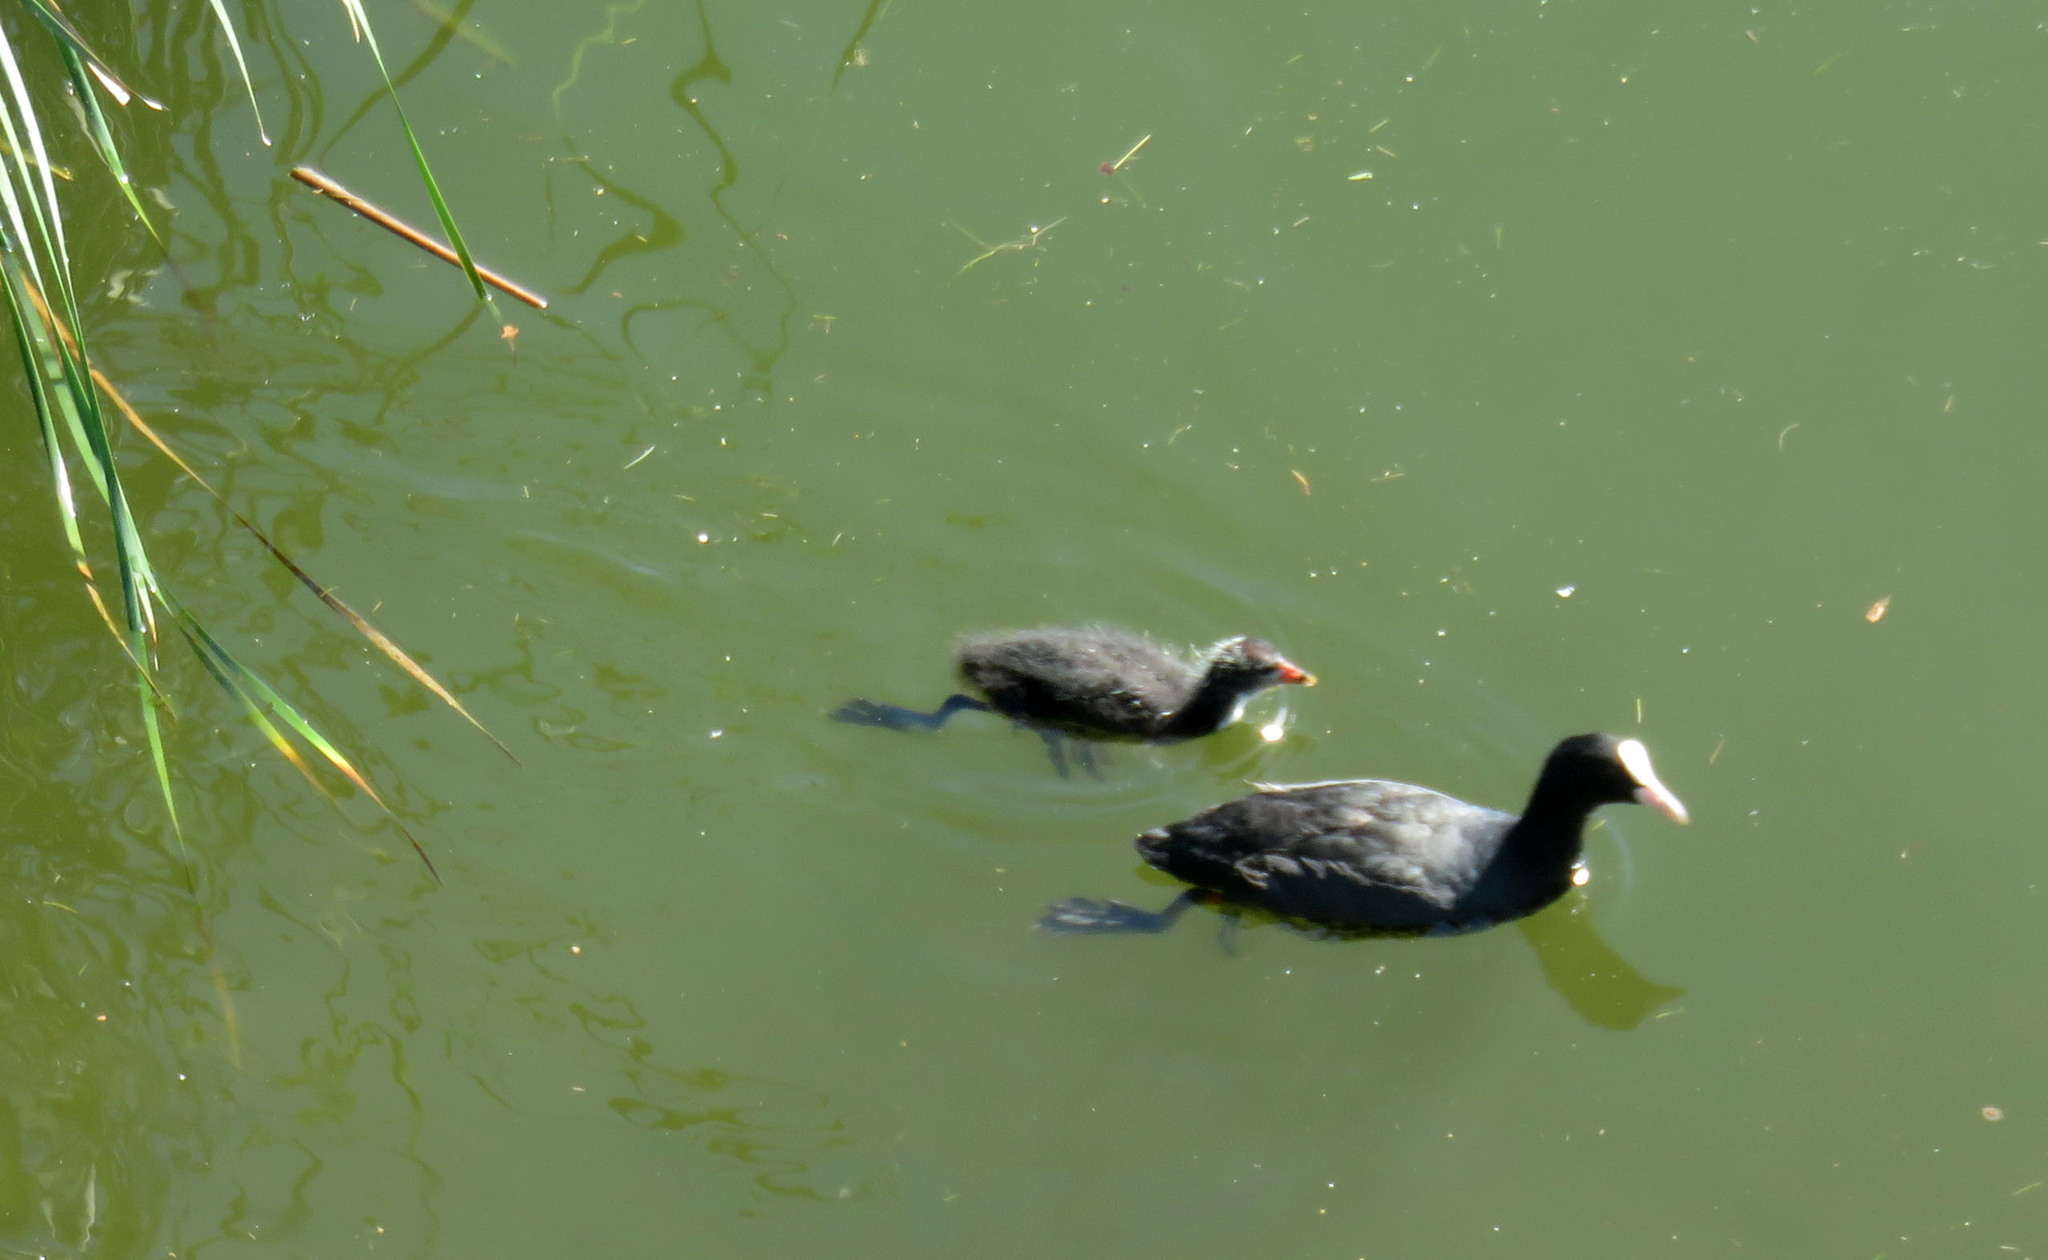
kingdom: Animalia
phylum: Chordata
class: Aves
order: Gruiformes
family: Rallidae
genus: Fulica
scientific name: Fulica atra
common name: Eurasian coot
